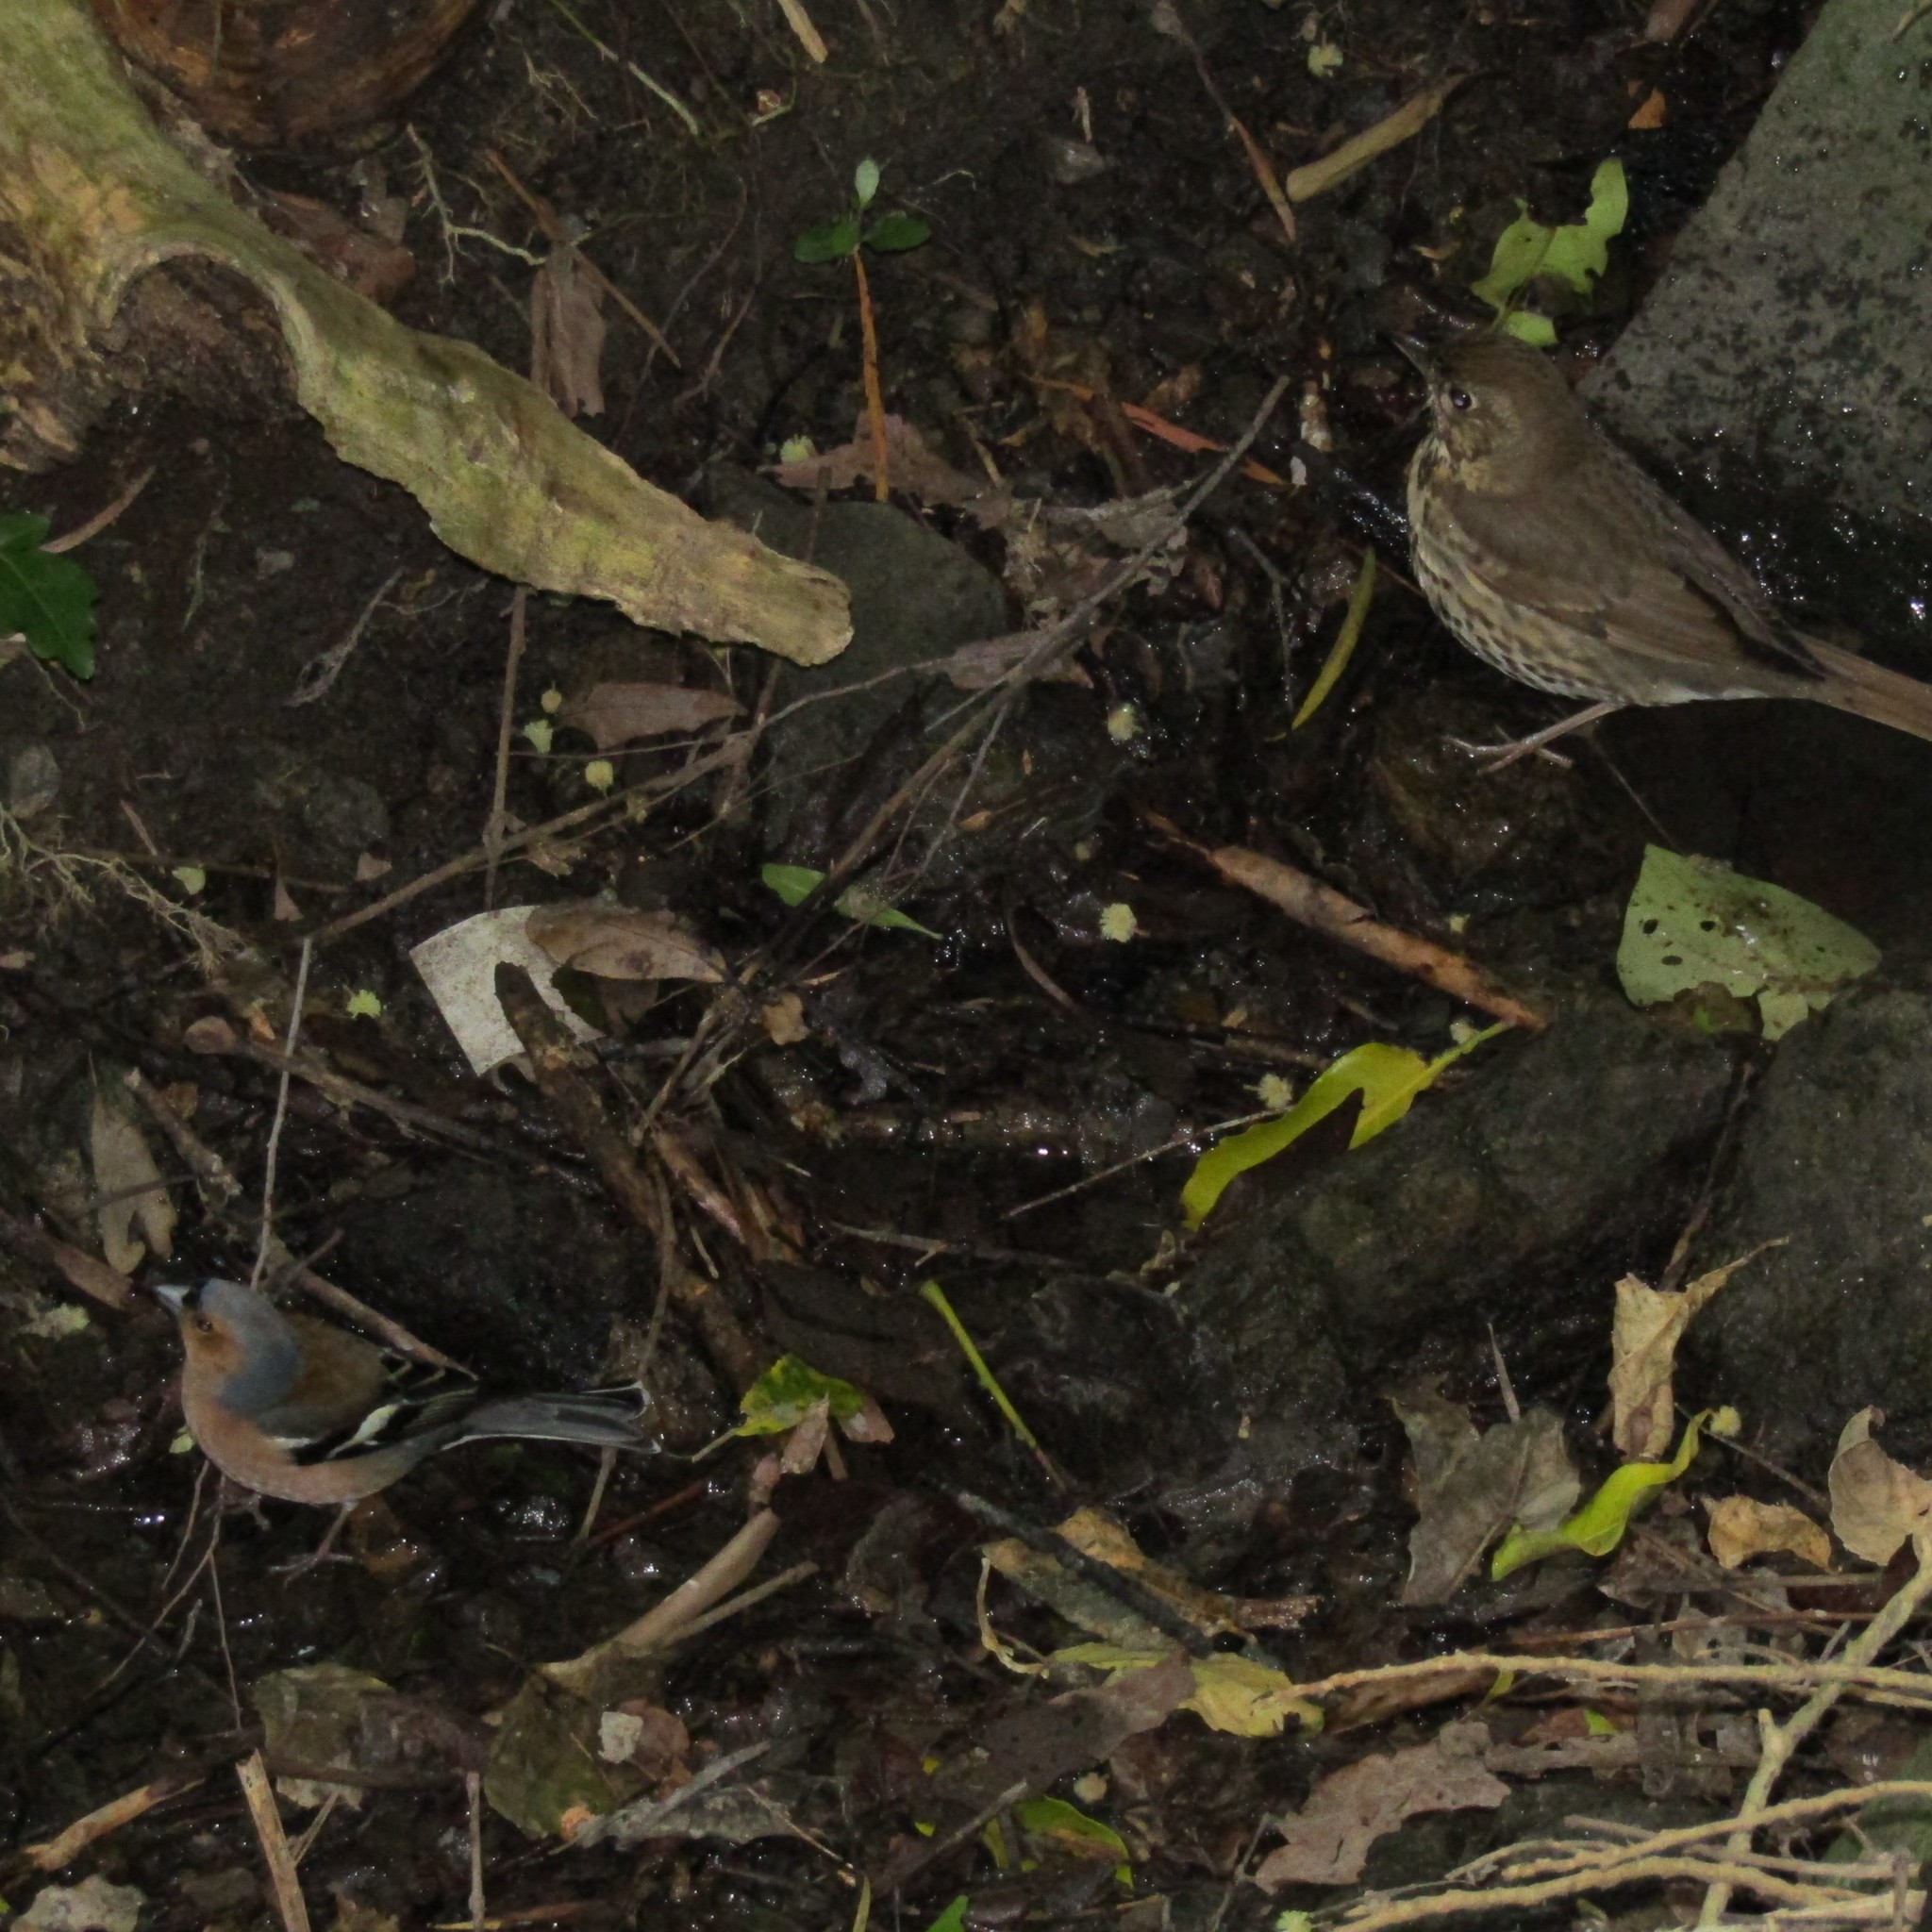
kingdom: Animalia
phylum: Chordata
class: Aves
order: Passeriformes
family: Fringillidae
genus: Fringilla
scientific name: Fringilla coelebs
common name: Common chaffinch
